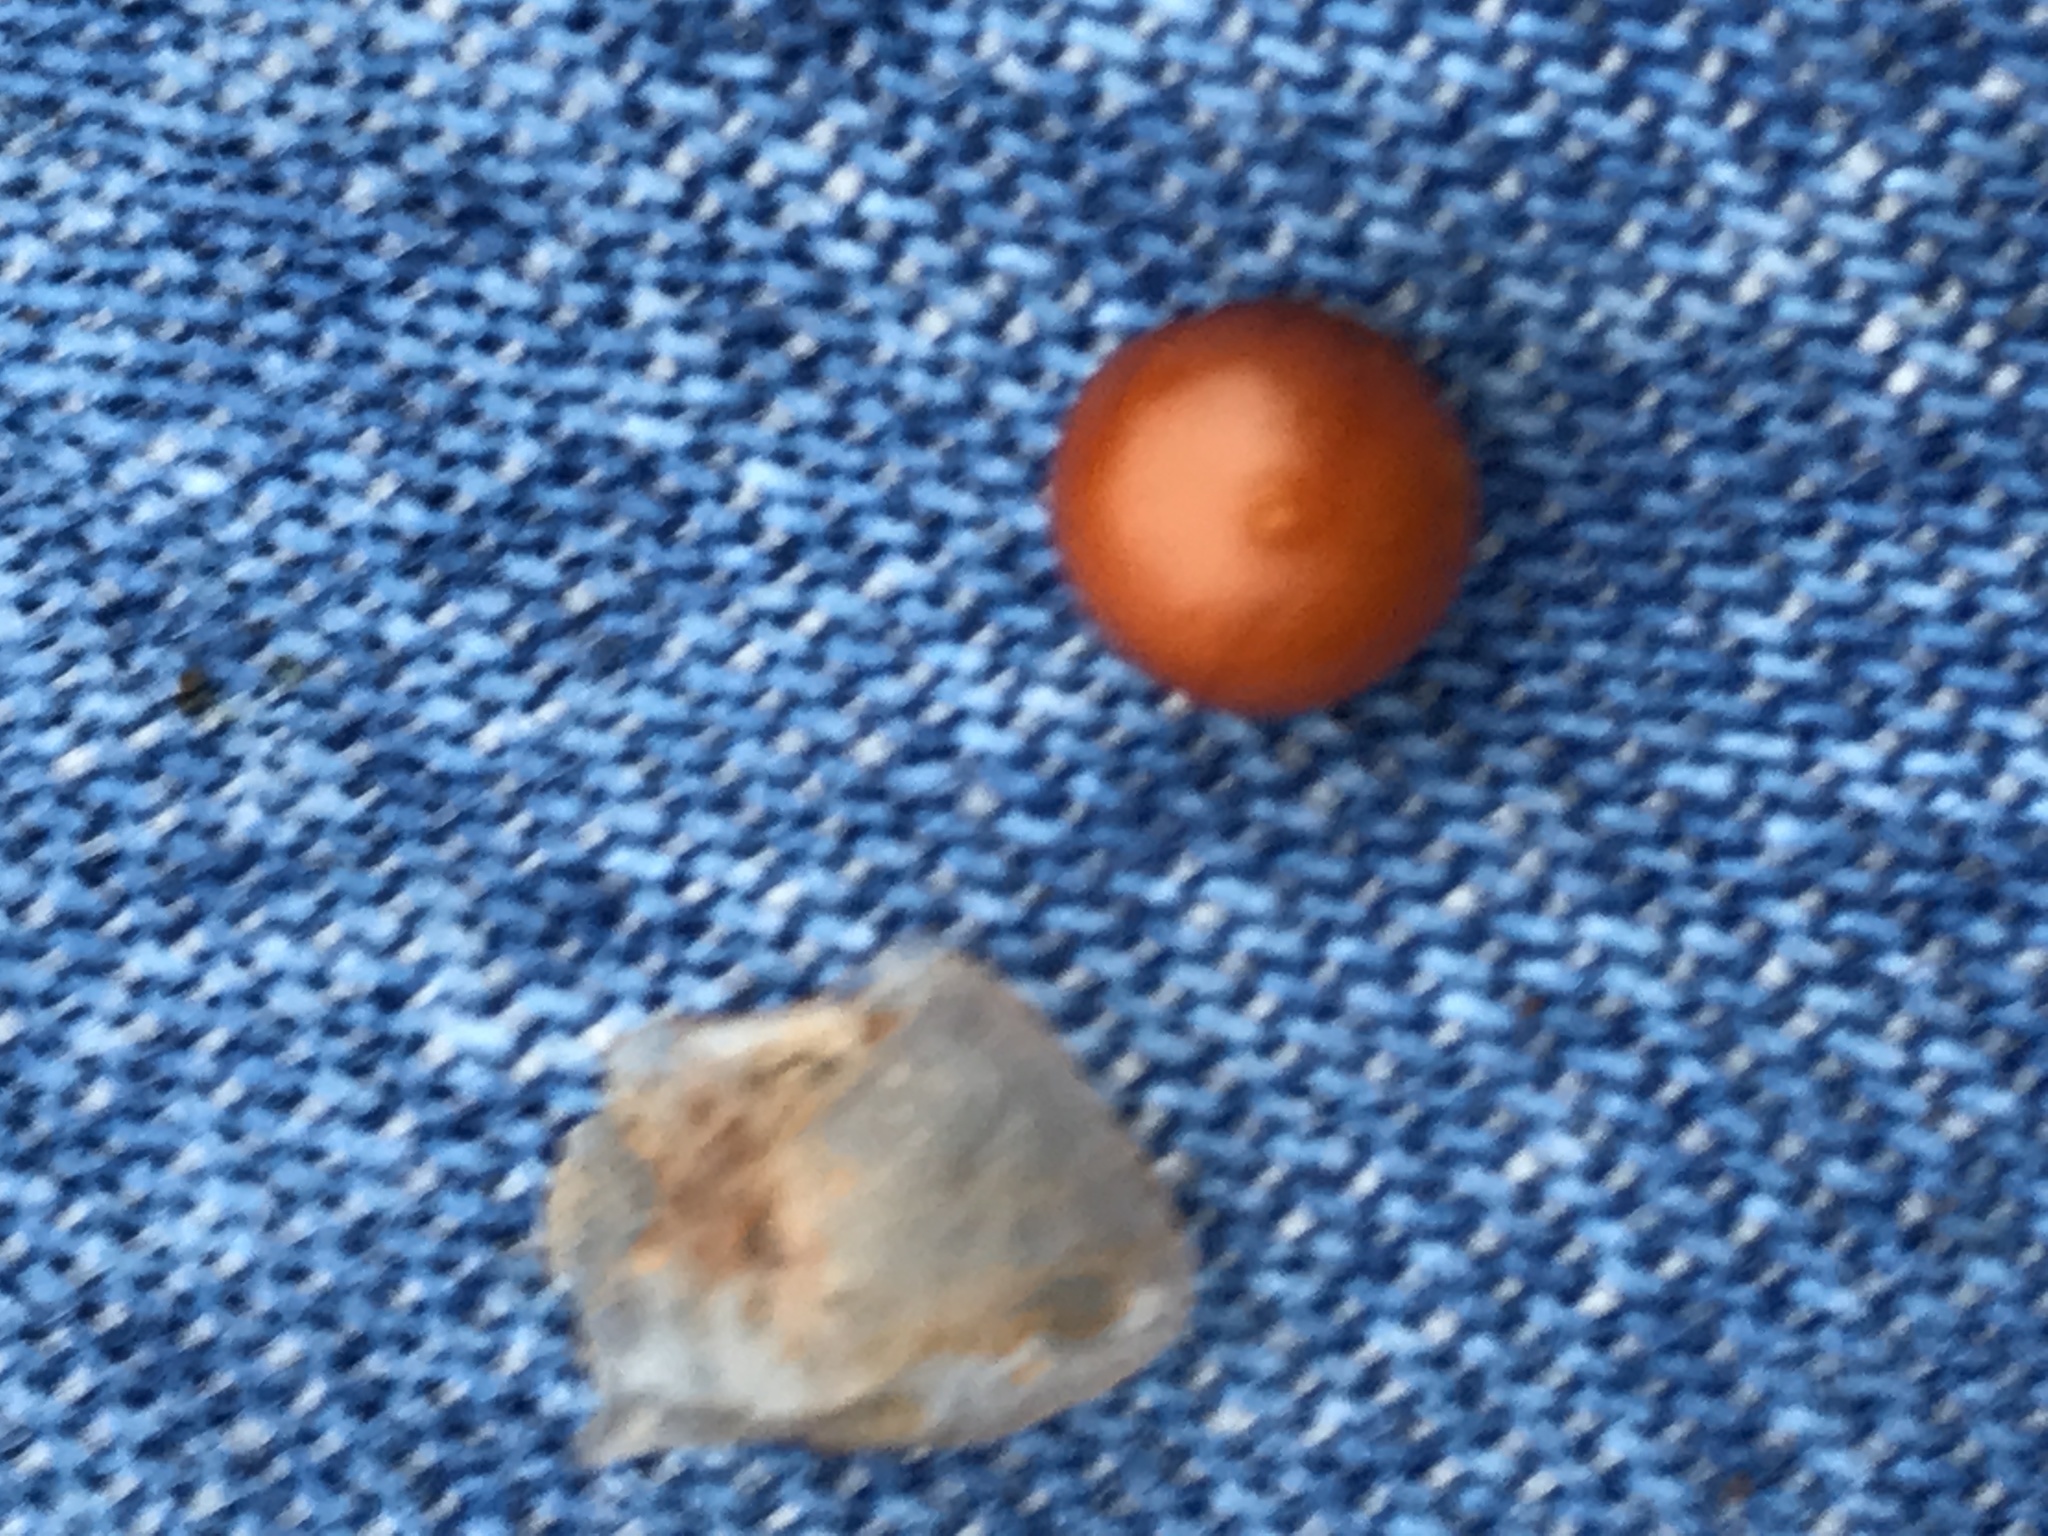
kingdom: Plantae
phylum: Tracheophyta
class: Liliopsida
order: Liliales
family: Smilacaceae
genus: Smilax
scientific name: Smilax bona-nox
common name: Catbrier
